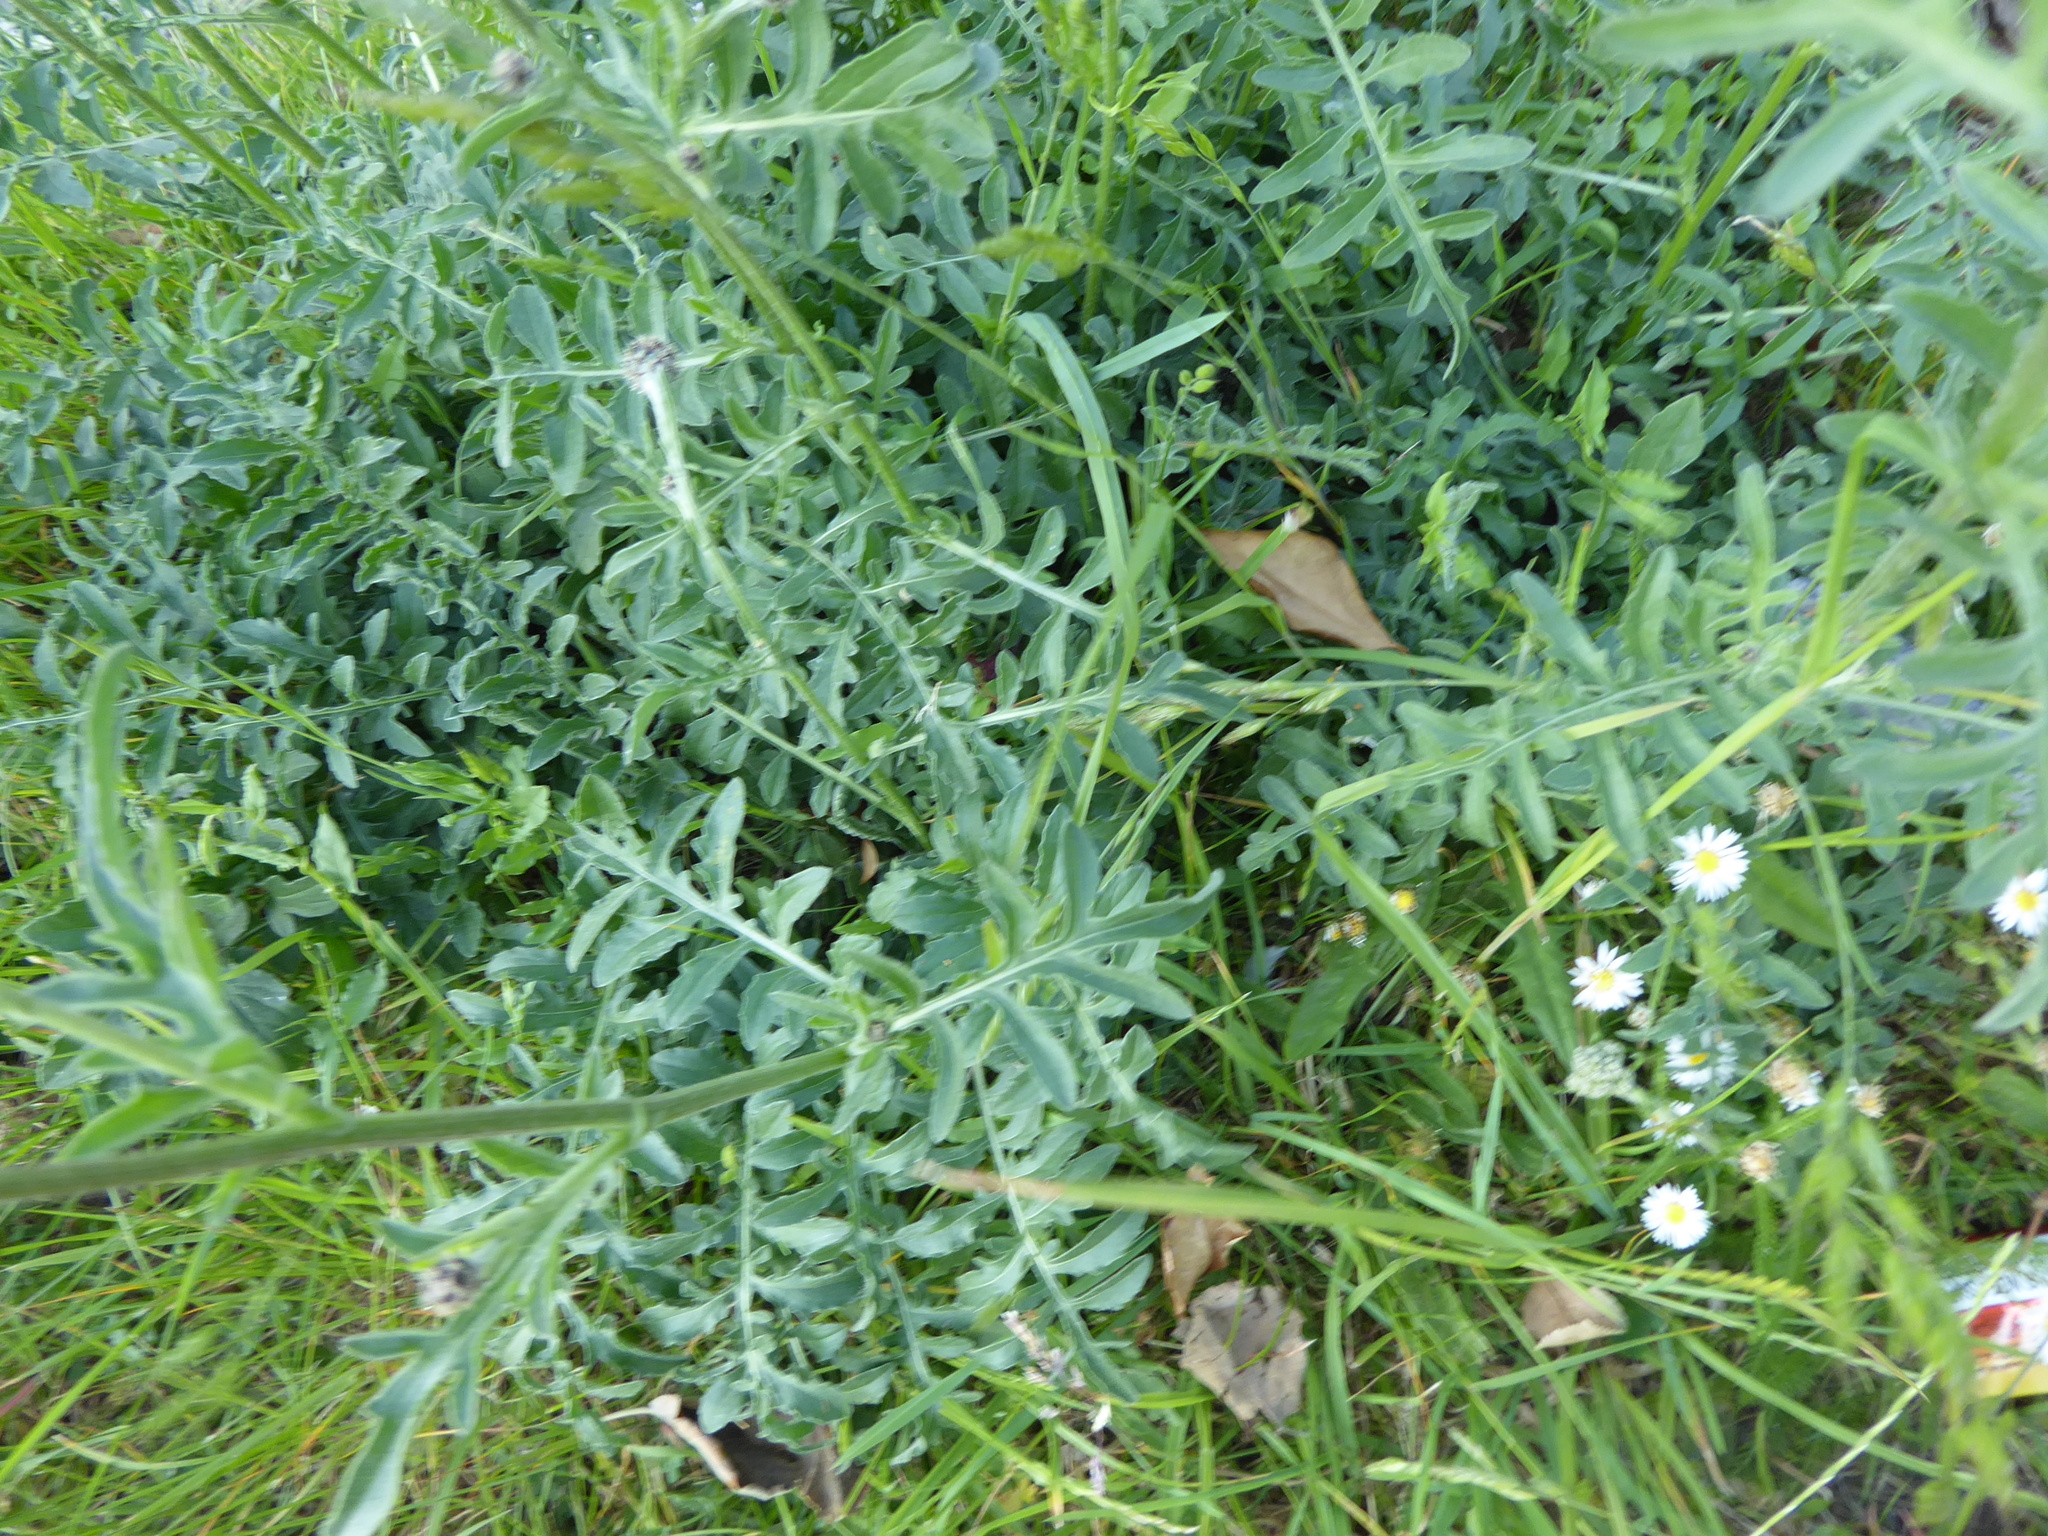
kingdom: Plantae
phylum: Tracheophyta
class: Magnoliopsida
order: Asterales
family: Asteraceae
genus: Centaurea
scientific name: Centaurea scabiosa
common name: Greater knapweed
